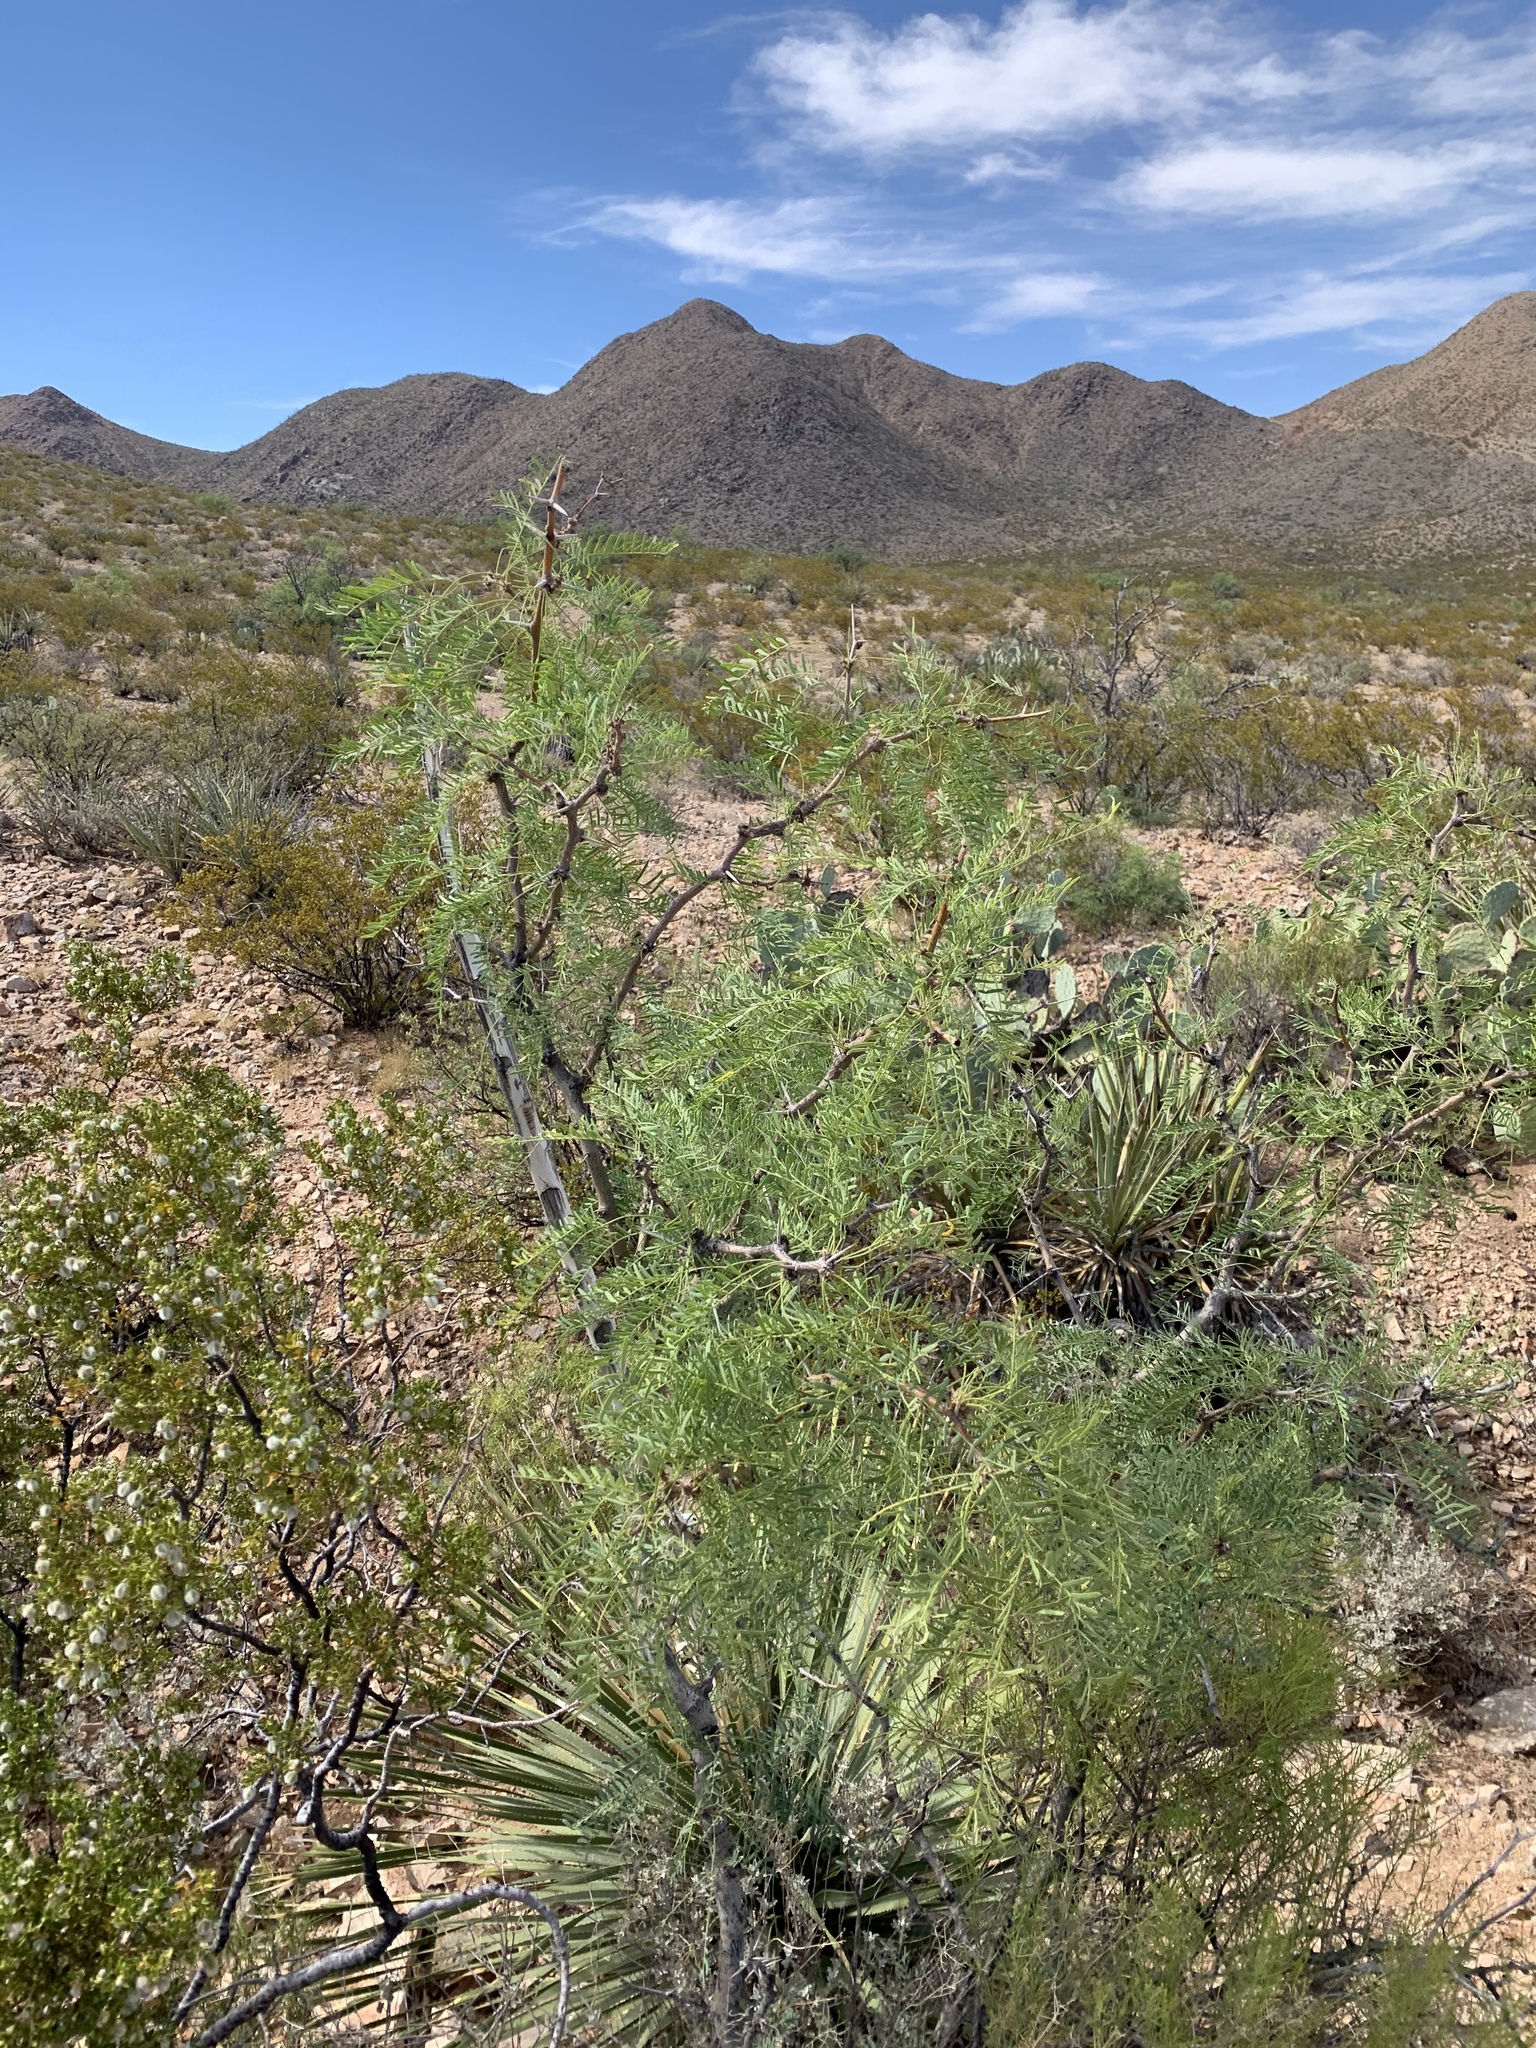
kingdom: Plantae
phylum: Tracheophyta
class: Magnoliopsida
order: Fabales
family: Fabaceae
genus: Prosopis
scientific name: Prosopis glandulosa
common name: Honey mesquite
